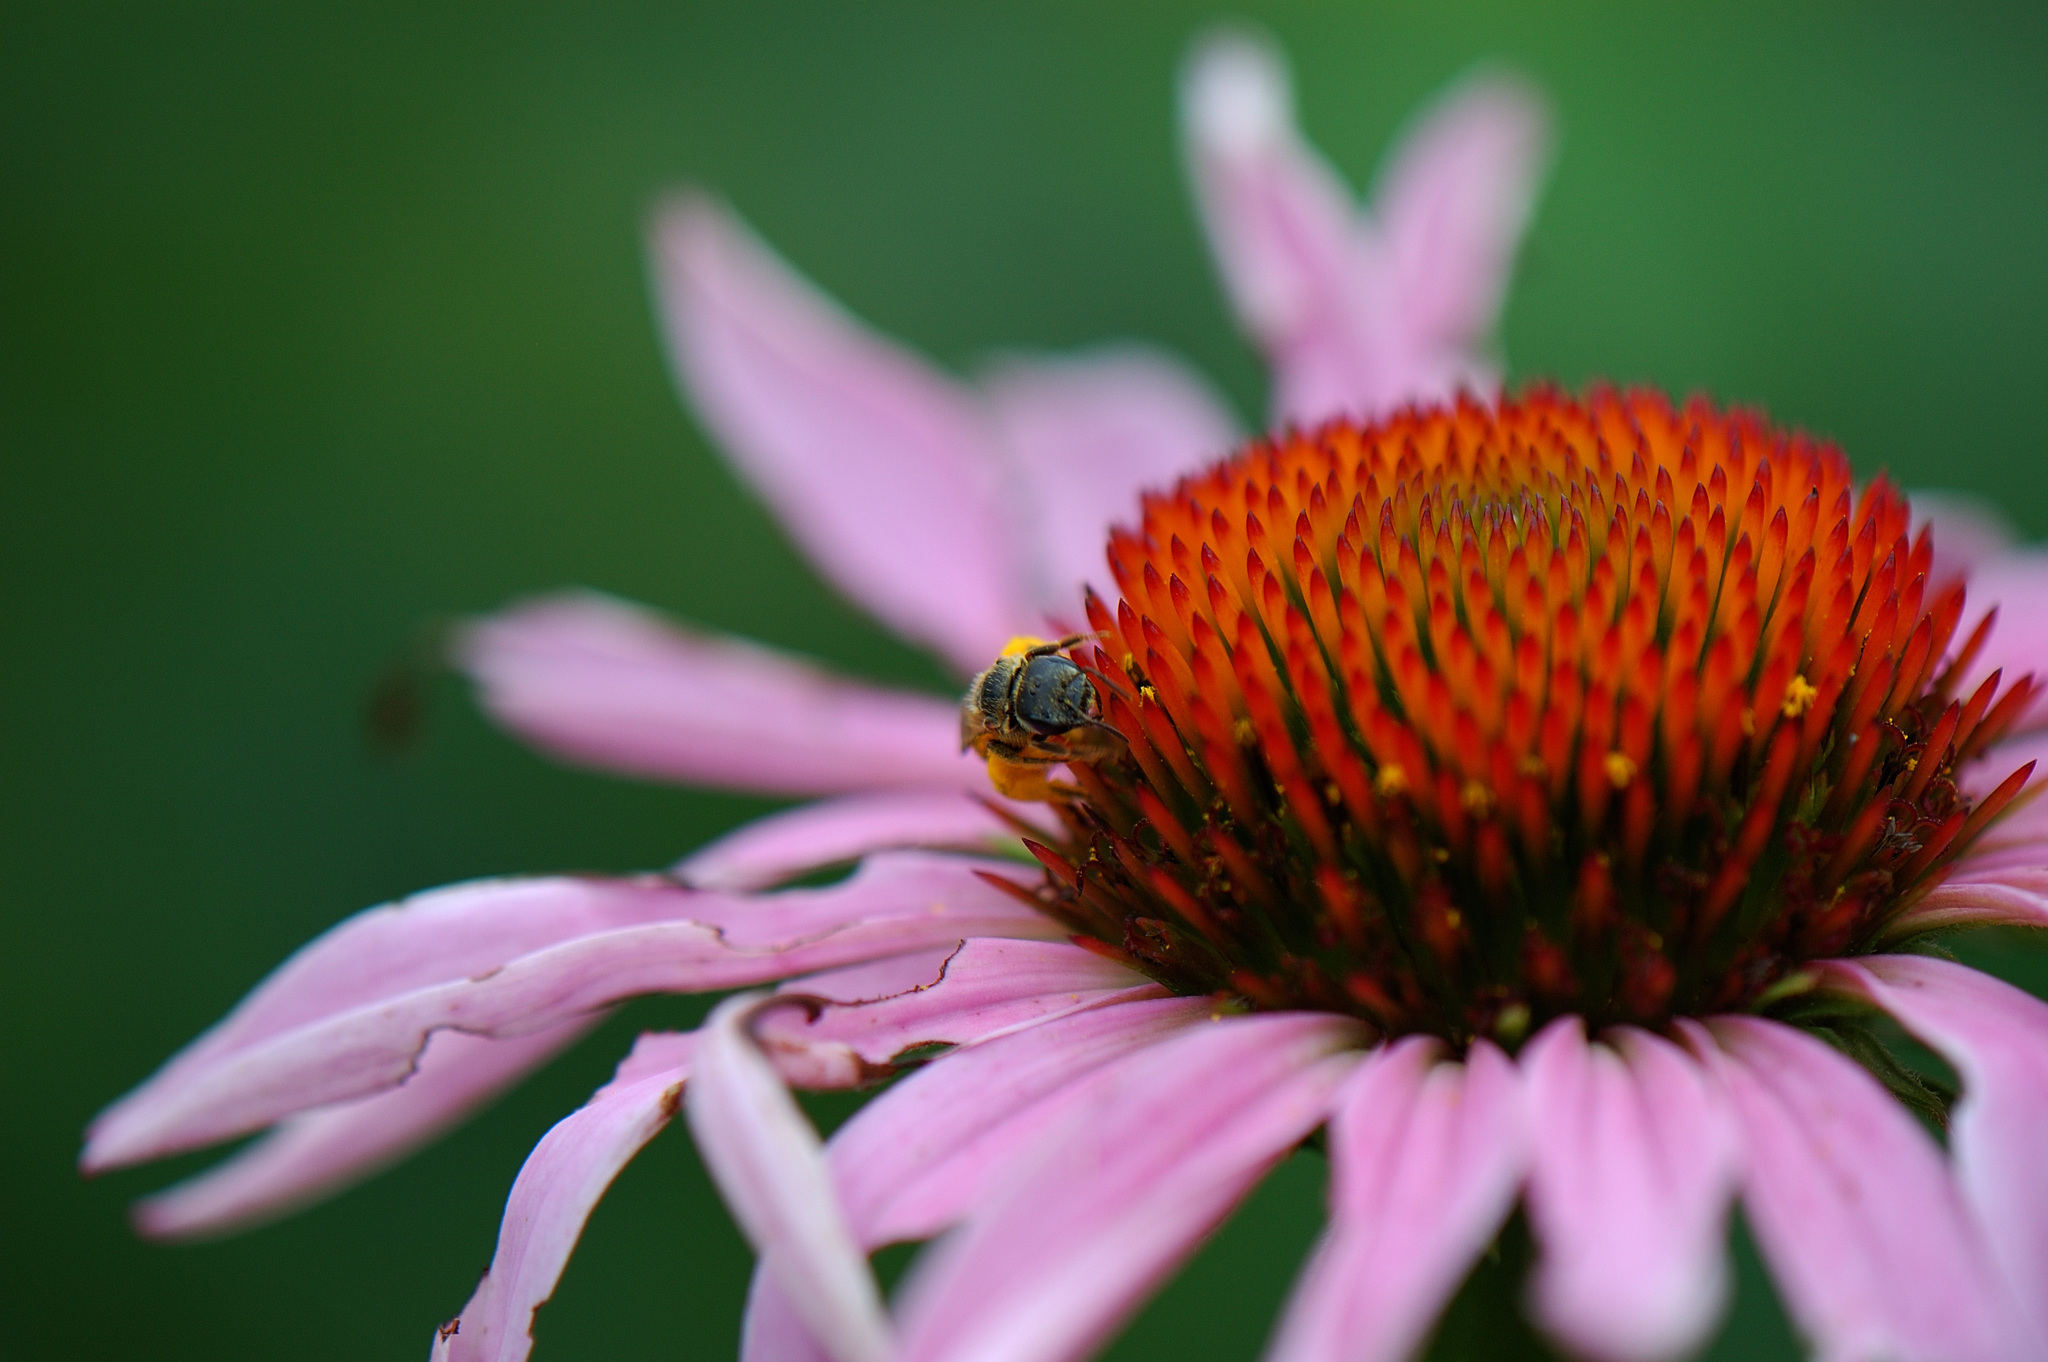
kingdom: Animalia
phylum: Arthropoda
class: Insecta
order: Hymenoptera
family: Halictidae
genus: Halictus
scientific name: Halictus ligatus
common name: Ligated furrow bee
